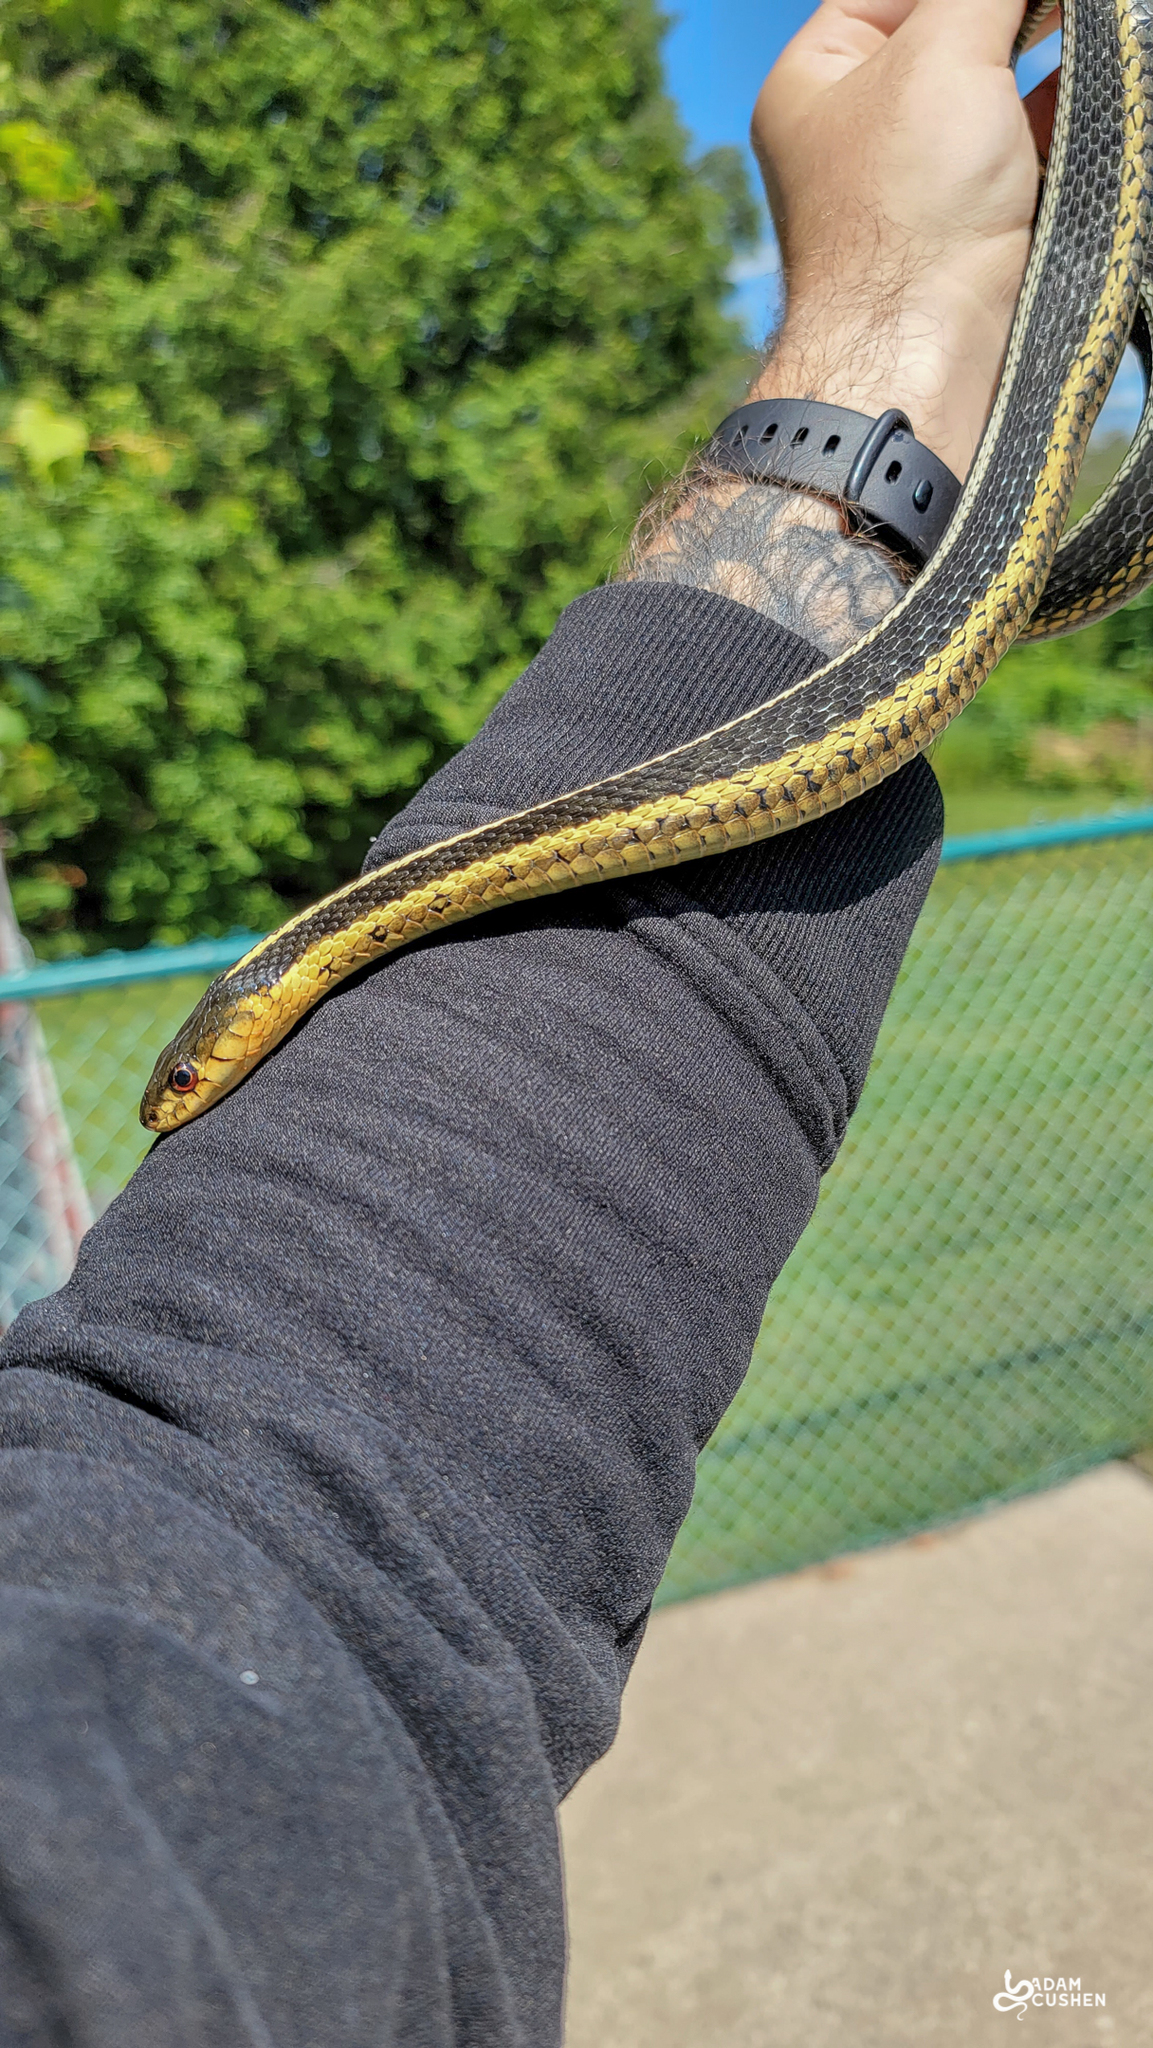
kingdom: Animalia
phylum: Chordata
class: Squamata
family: Colubridae
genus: Thamnophis
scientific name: Thamnophis sirtalis
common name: Common garter snake
